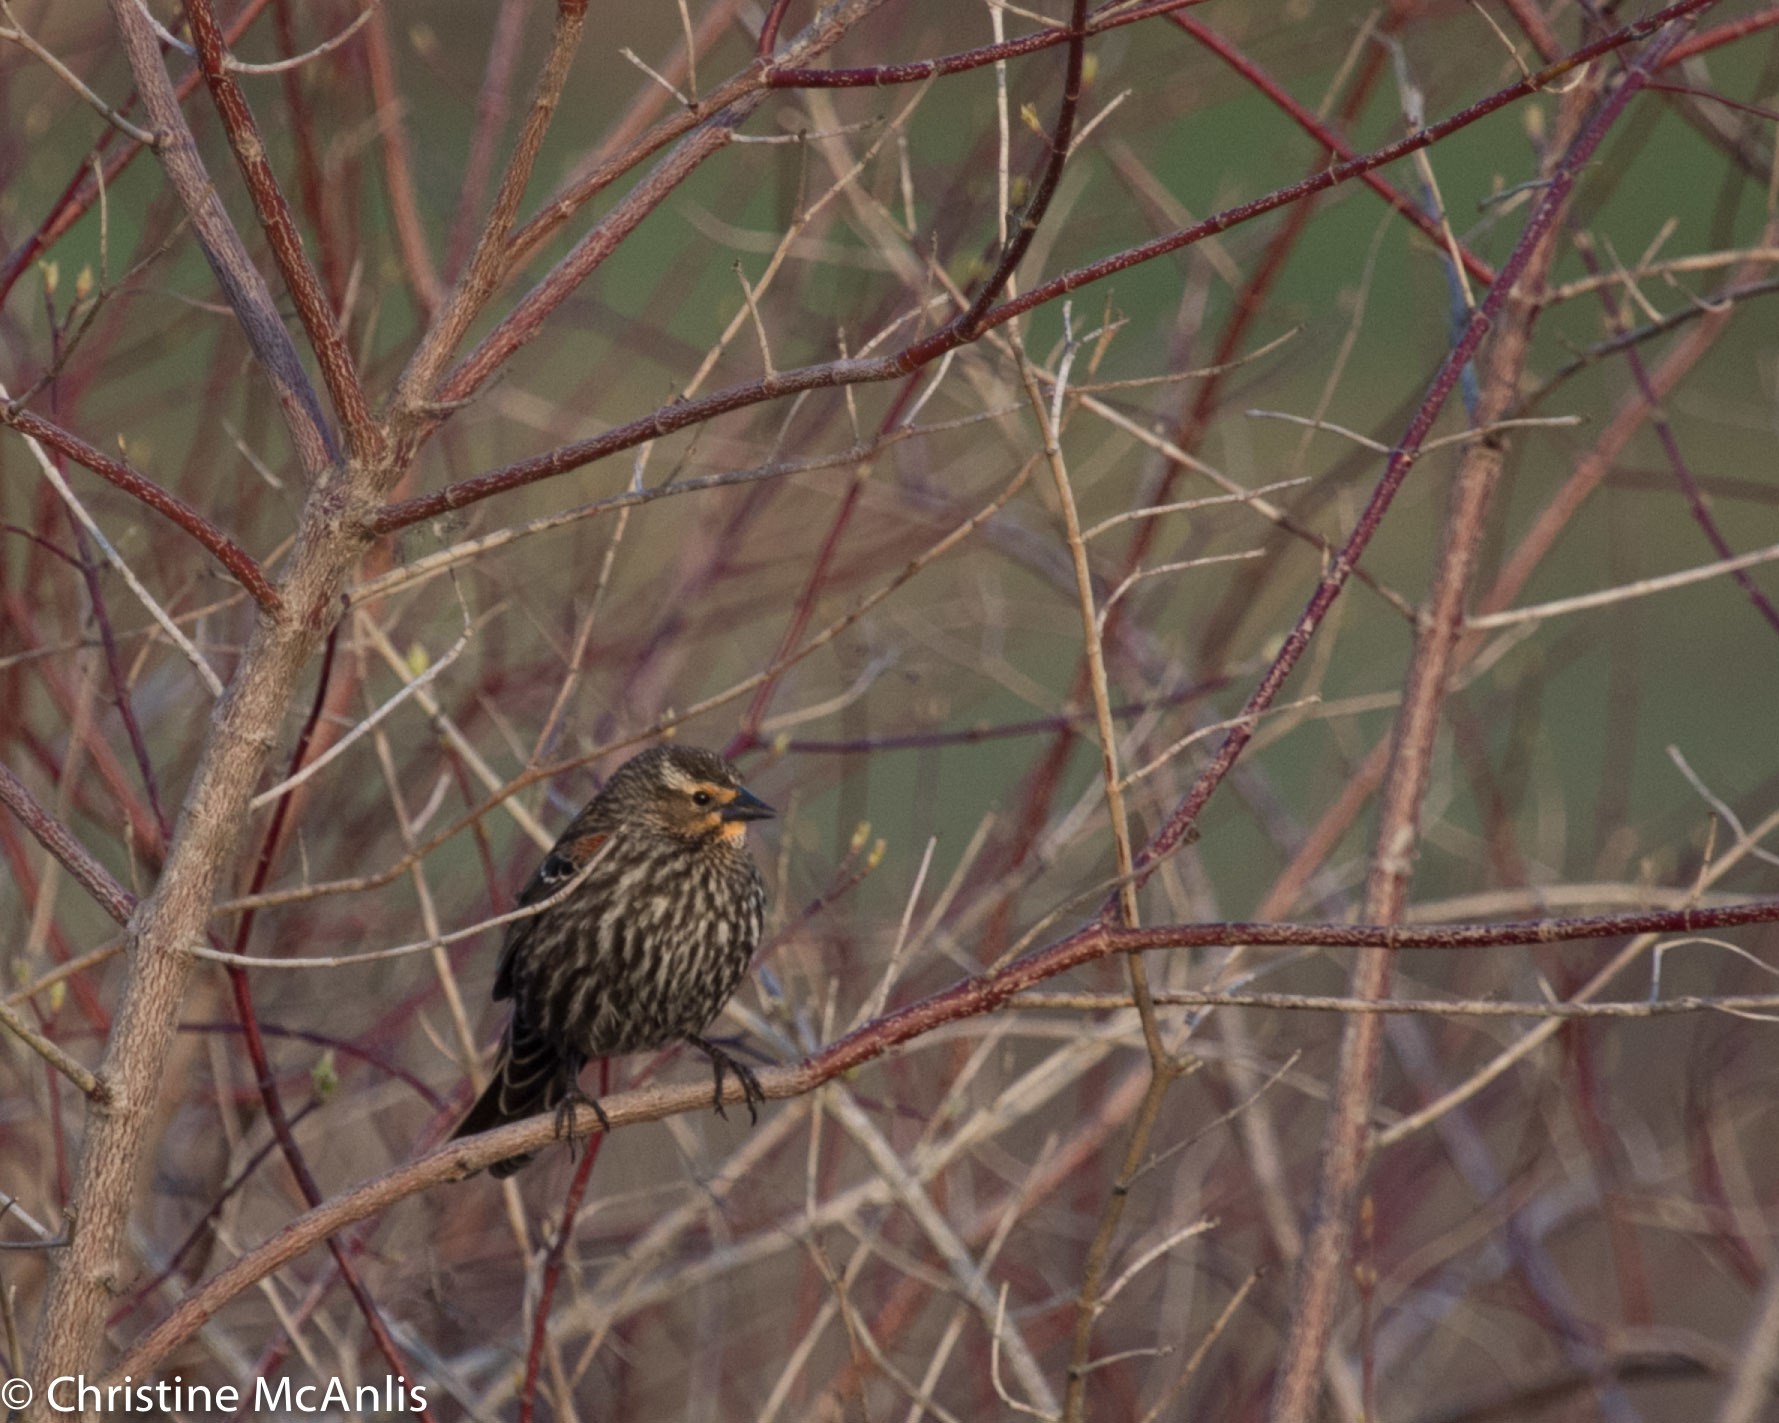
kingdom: Animalia
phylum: Chordata
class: Aves
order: Passeriformes
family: Icteridae
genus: Agelaius
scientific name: Agelaius phoeniceus
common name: Red-winged blackbird
